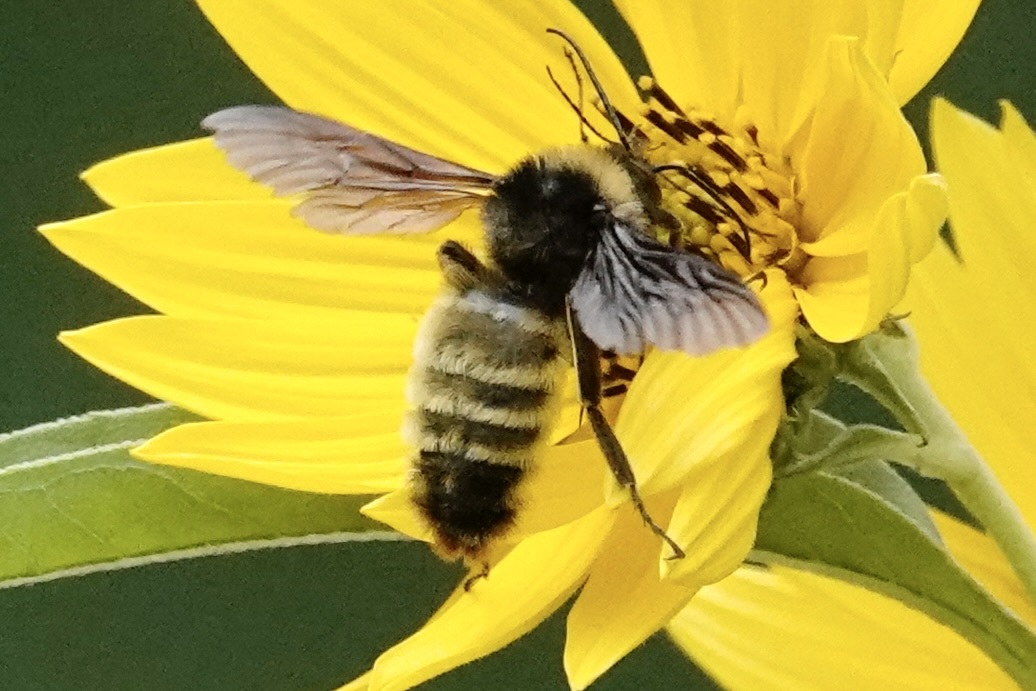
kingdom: Animalia
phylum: Arthropoda
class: Insecta
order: Hymenoptera
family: Apidae
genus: Bombus
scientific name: Bombus pensylvanicus
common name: Bumble bee
